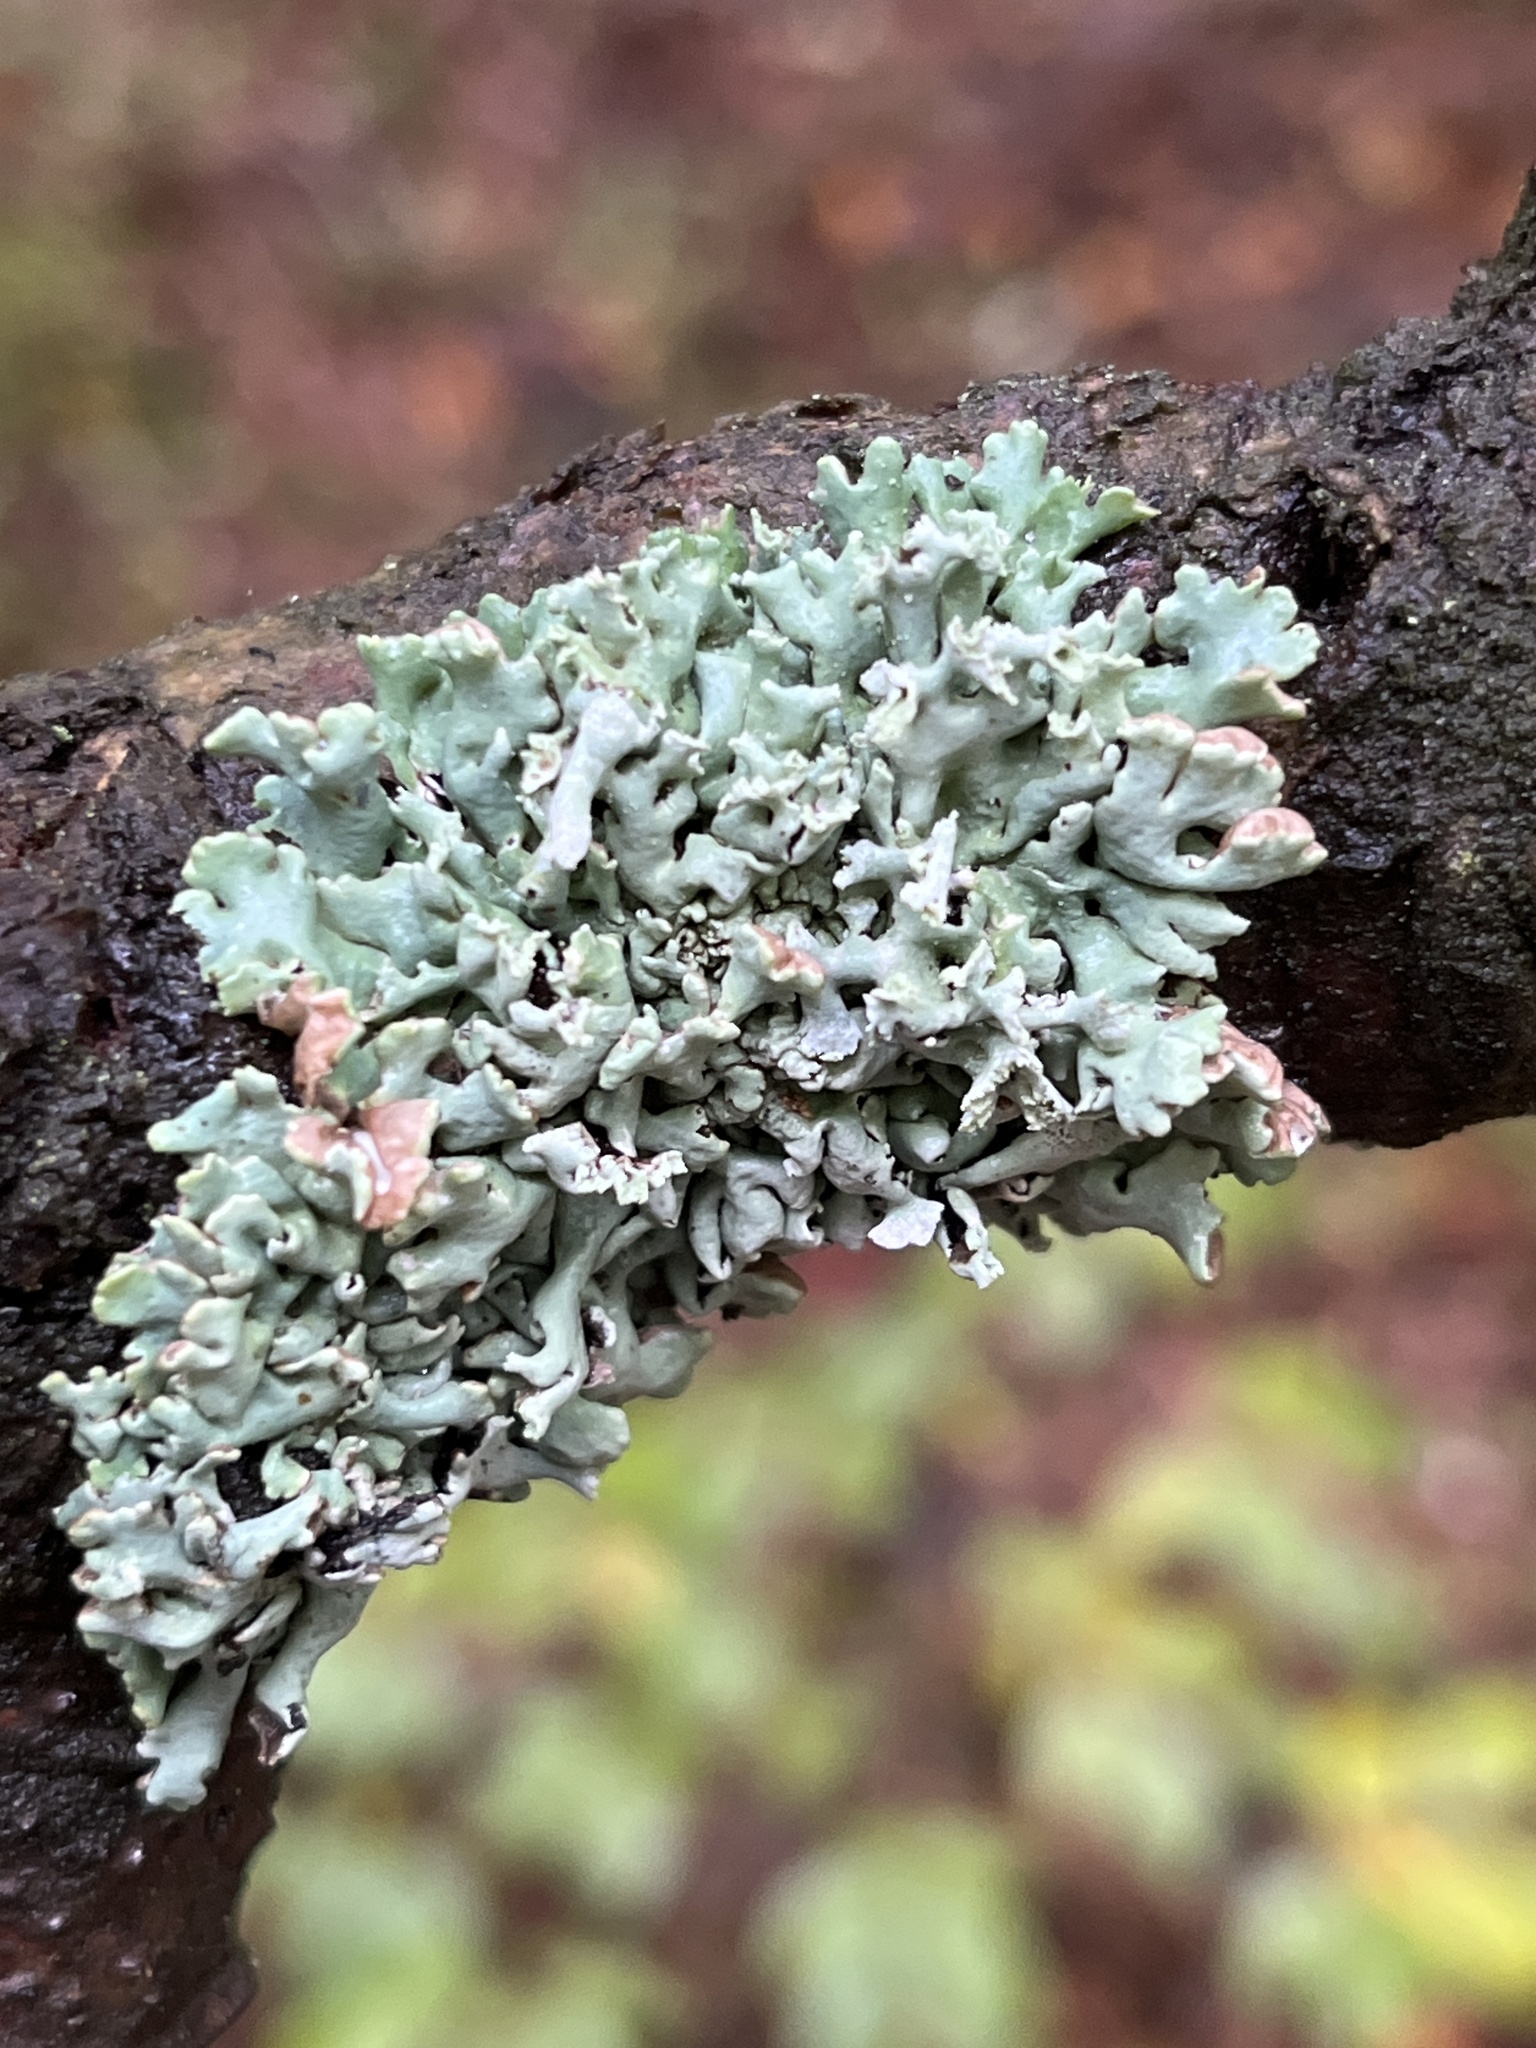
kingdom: Fungi
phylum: Ascomycota
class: Lecanoromycetes
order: Lecanorales
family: Parmeliaceae
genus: Hypogymnia
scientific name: Hypogymnia physodes
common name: Dark crottle
